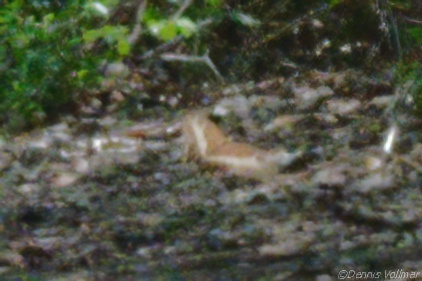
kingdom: Animalia
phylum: Arthropoda
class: Insecta
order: Lepidoptera
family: Papilionidae
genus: Papilio
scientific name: Papilio andraemon
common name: Bahaman swallowtail
